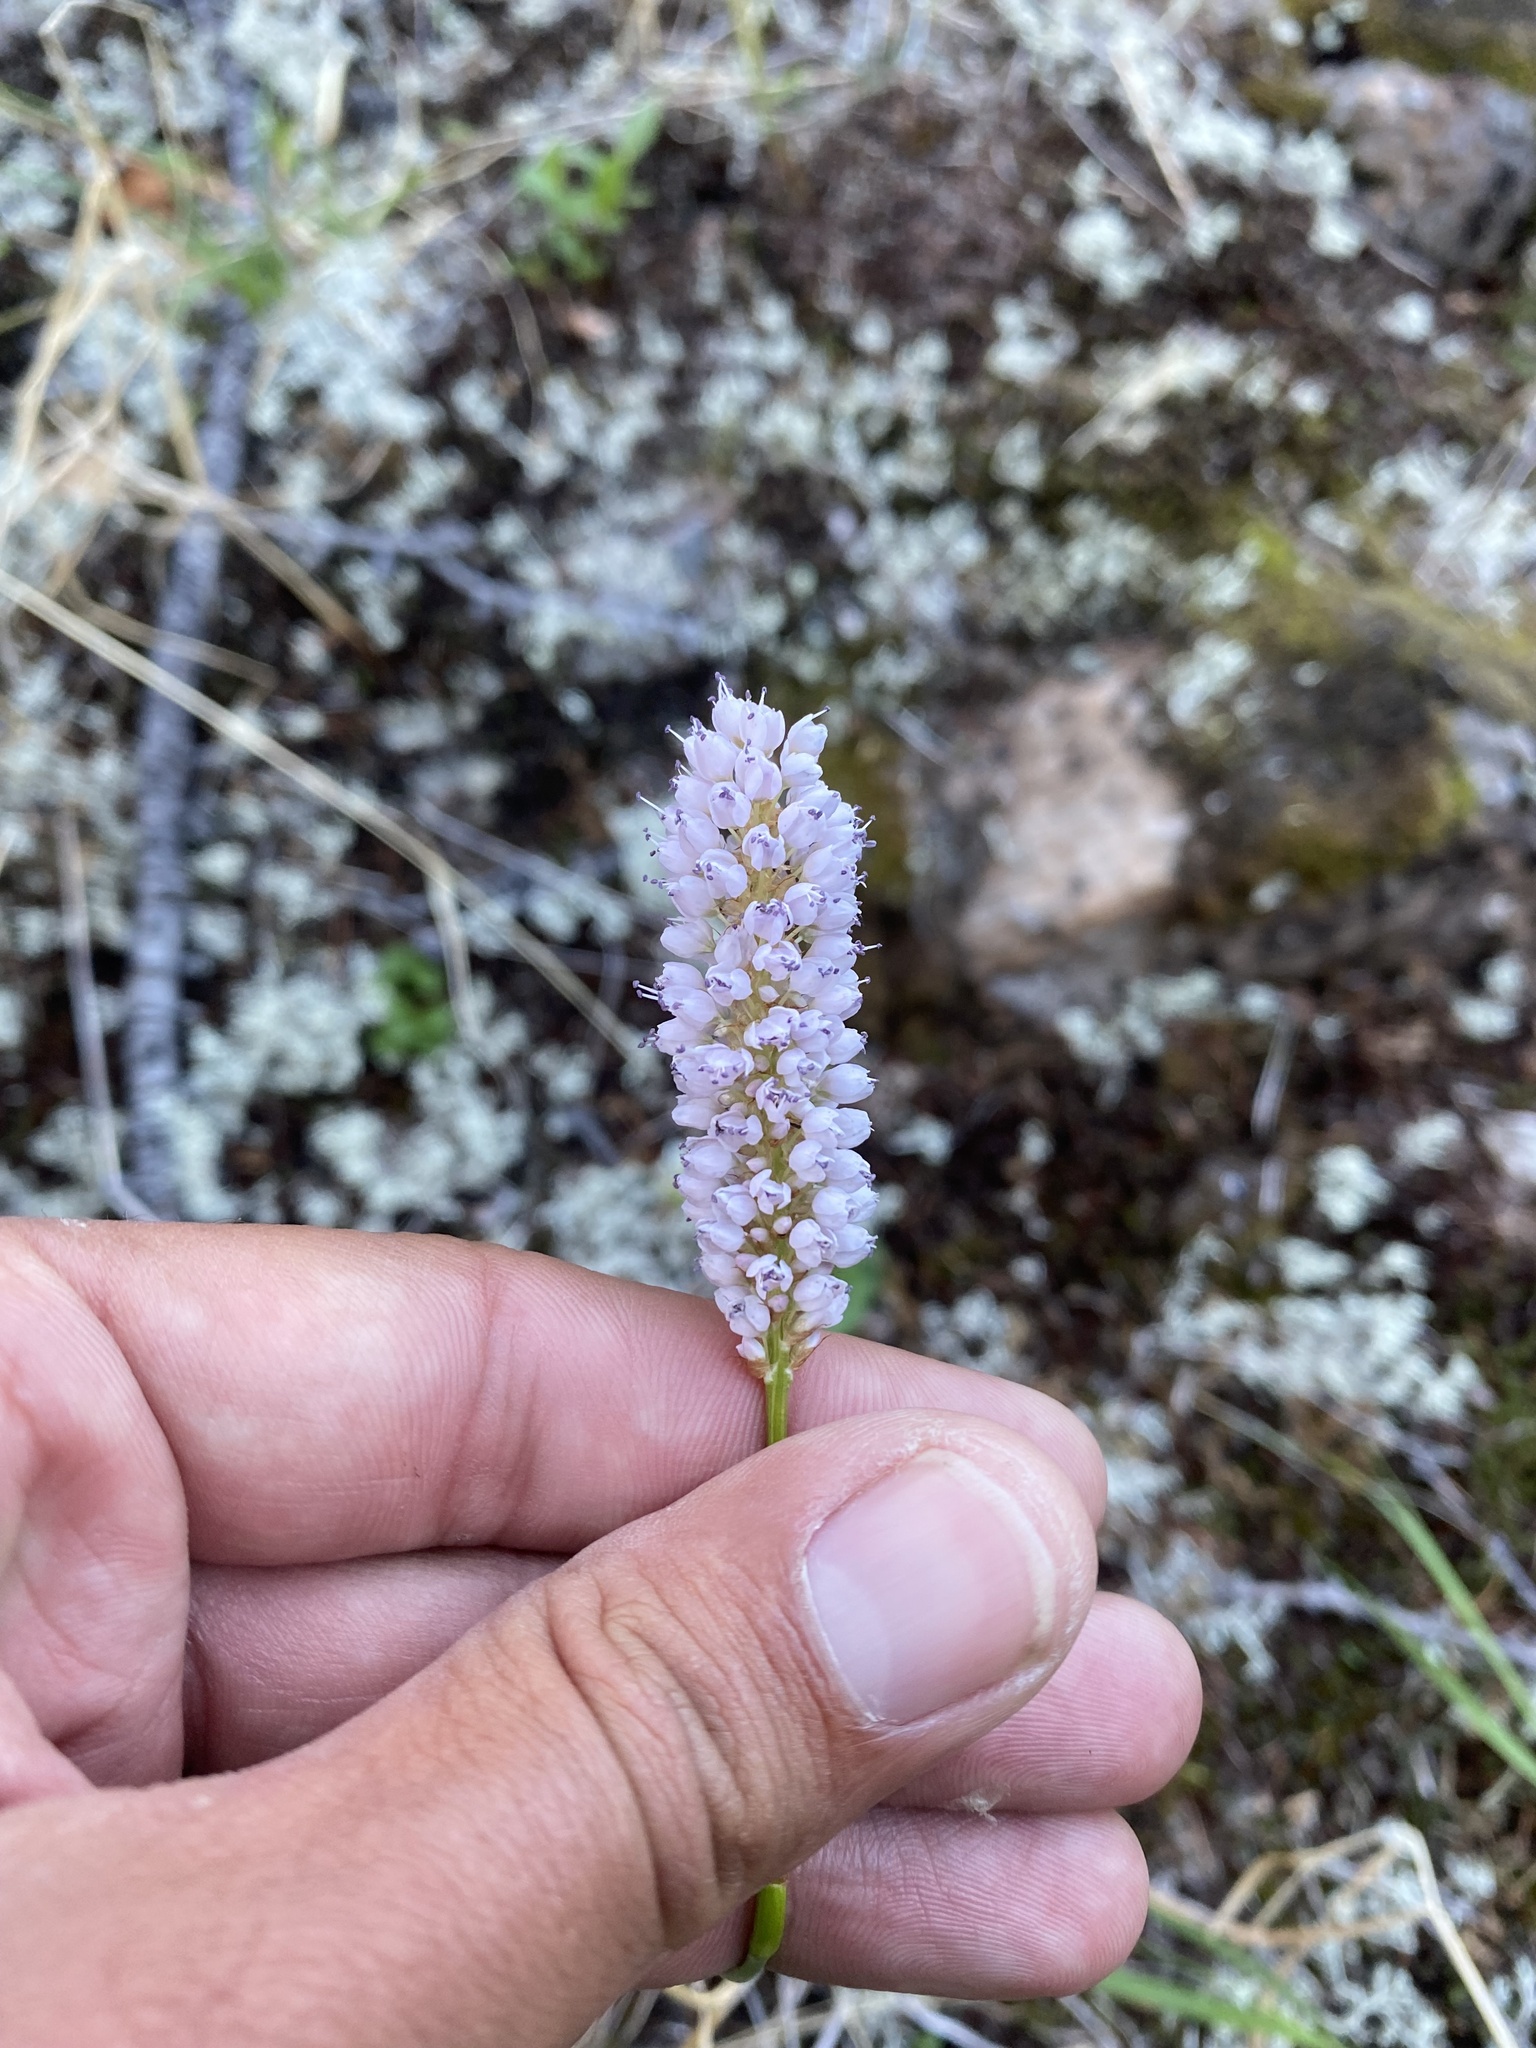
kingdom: Plantae
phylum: Tracheophyta
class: Magnoliopsida
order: Caryophyllales
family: Polygonaceae
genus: Bistorta
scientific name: Bistorta officinalis
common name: Common bistort
